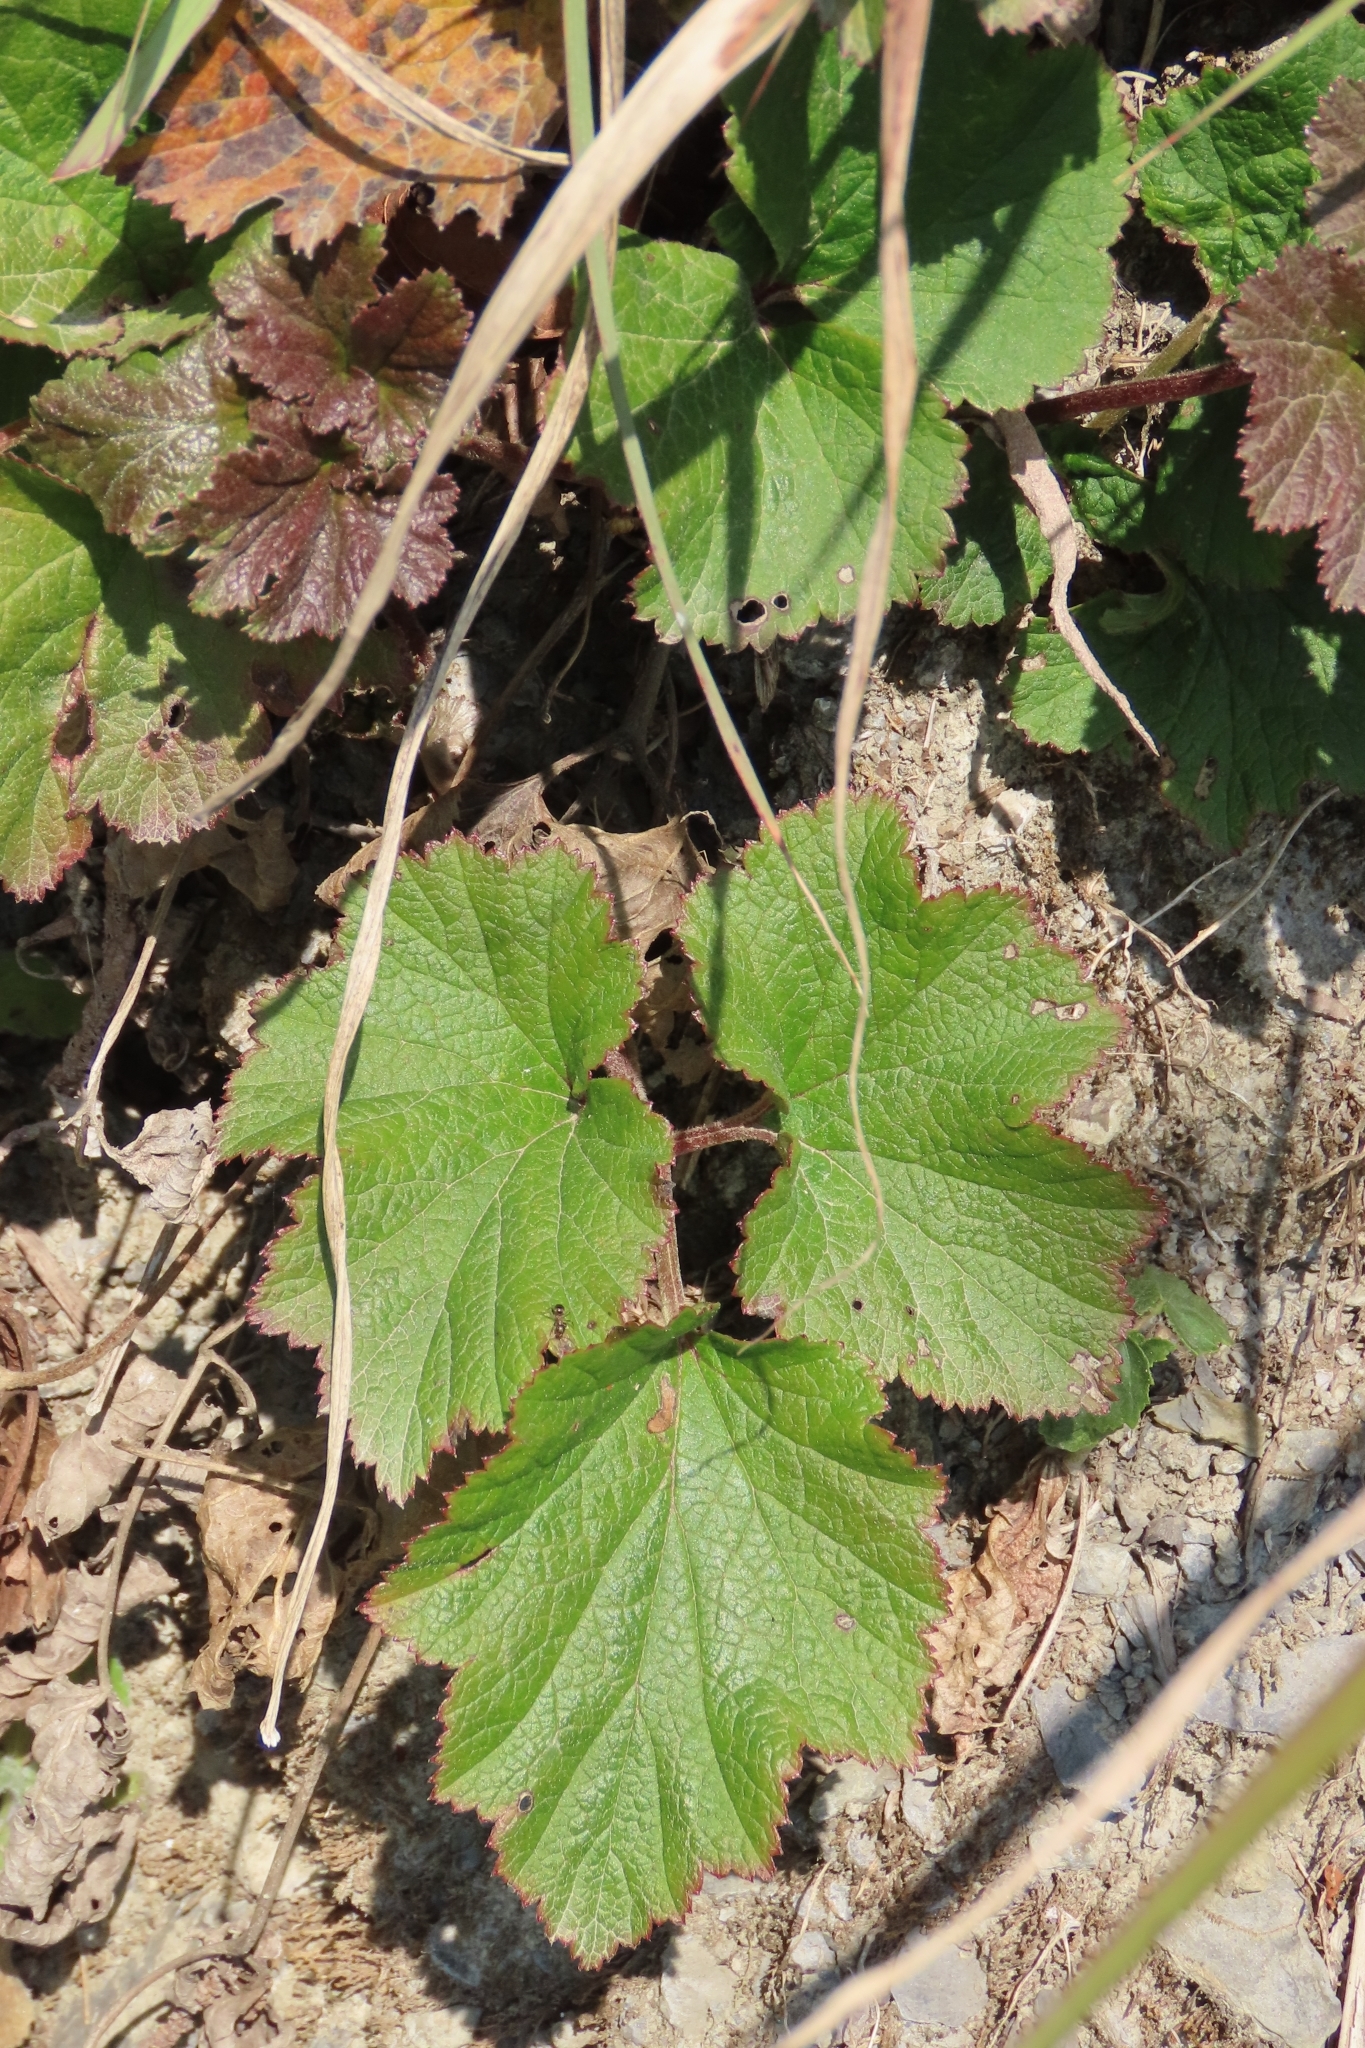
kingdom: Plantae
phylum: Tracheophyta
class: Magnoliopsida
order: Ranunculales
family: Ranunculaceae
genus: Eriocapitella
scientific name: Eriocapitella vitifolia
